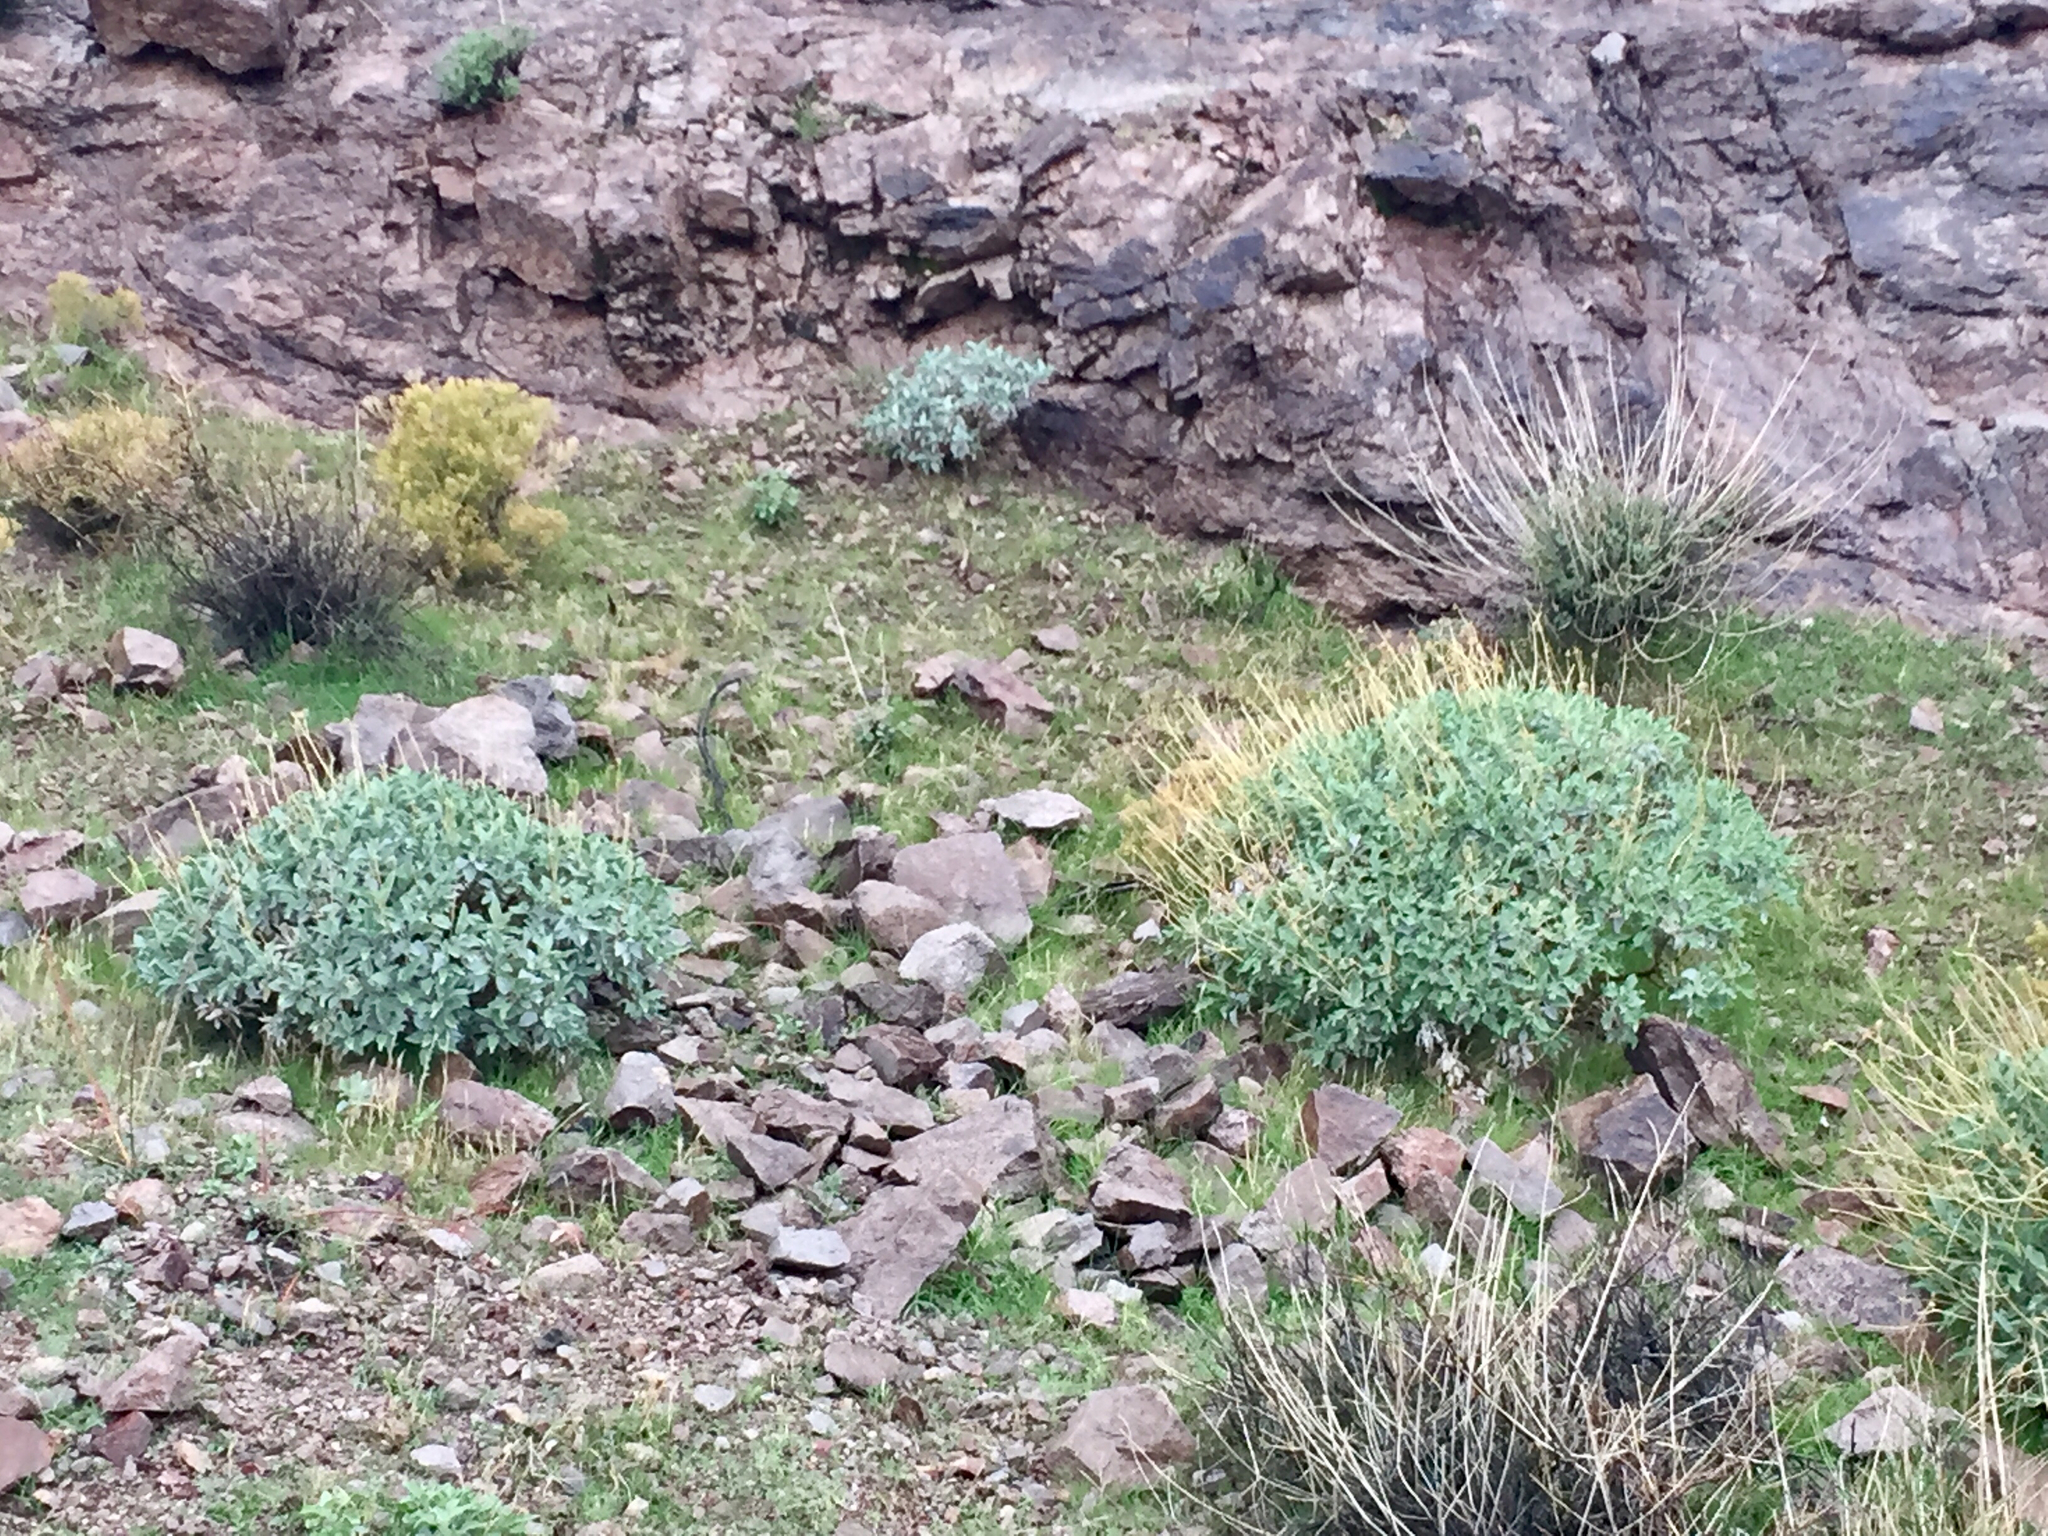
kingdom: Plantae
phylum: Tracheophyta
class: Magnoliopsida
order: Asterales
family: Asteraceae
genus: Encelia
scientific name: Encelia farinosa
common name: Brittlebush
